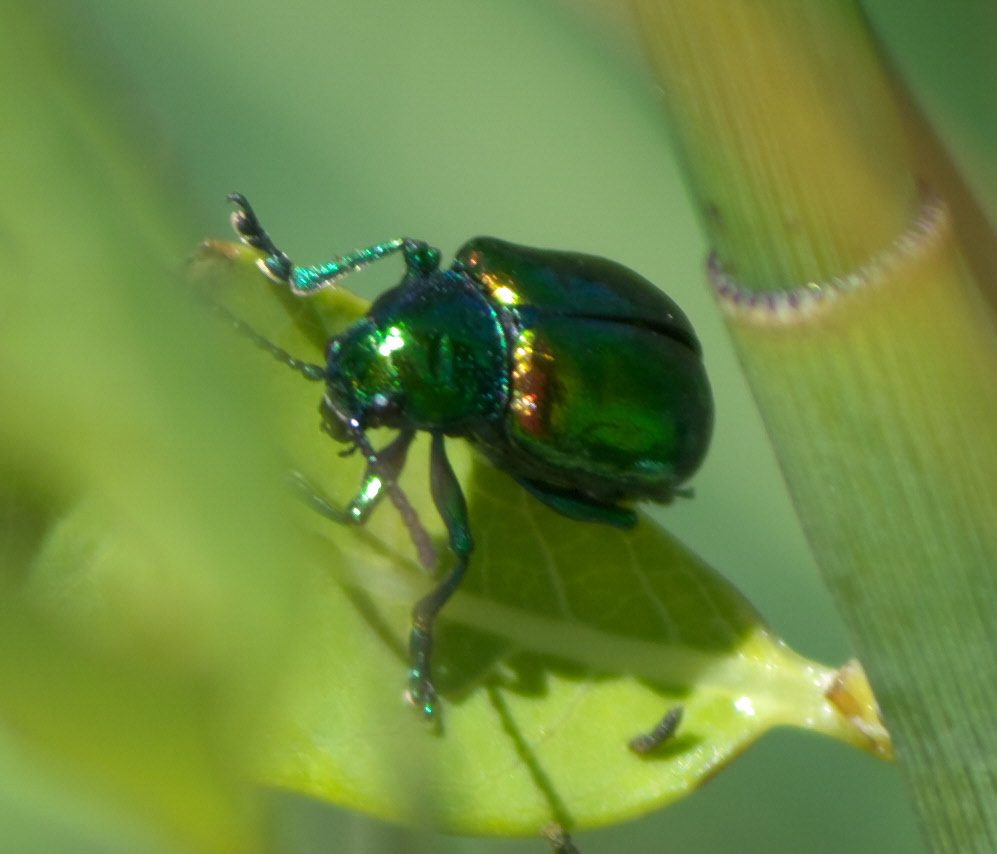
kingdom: Animalia
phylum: Arthropoda
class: Insecta
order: Coleoptera
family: Chrysomelidae
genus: Chrysochus
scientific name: Chrysochus auratus
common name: Dogbane leaf beetle
